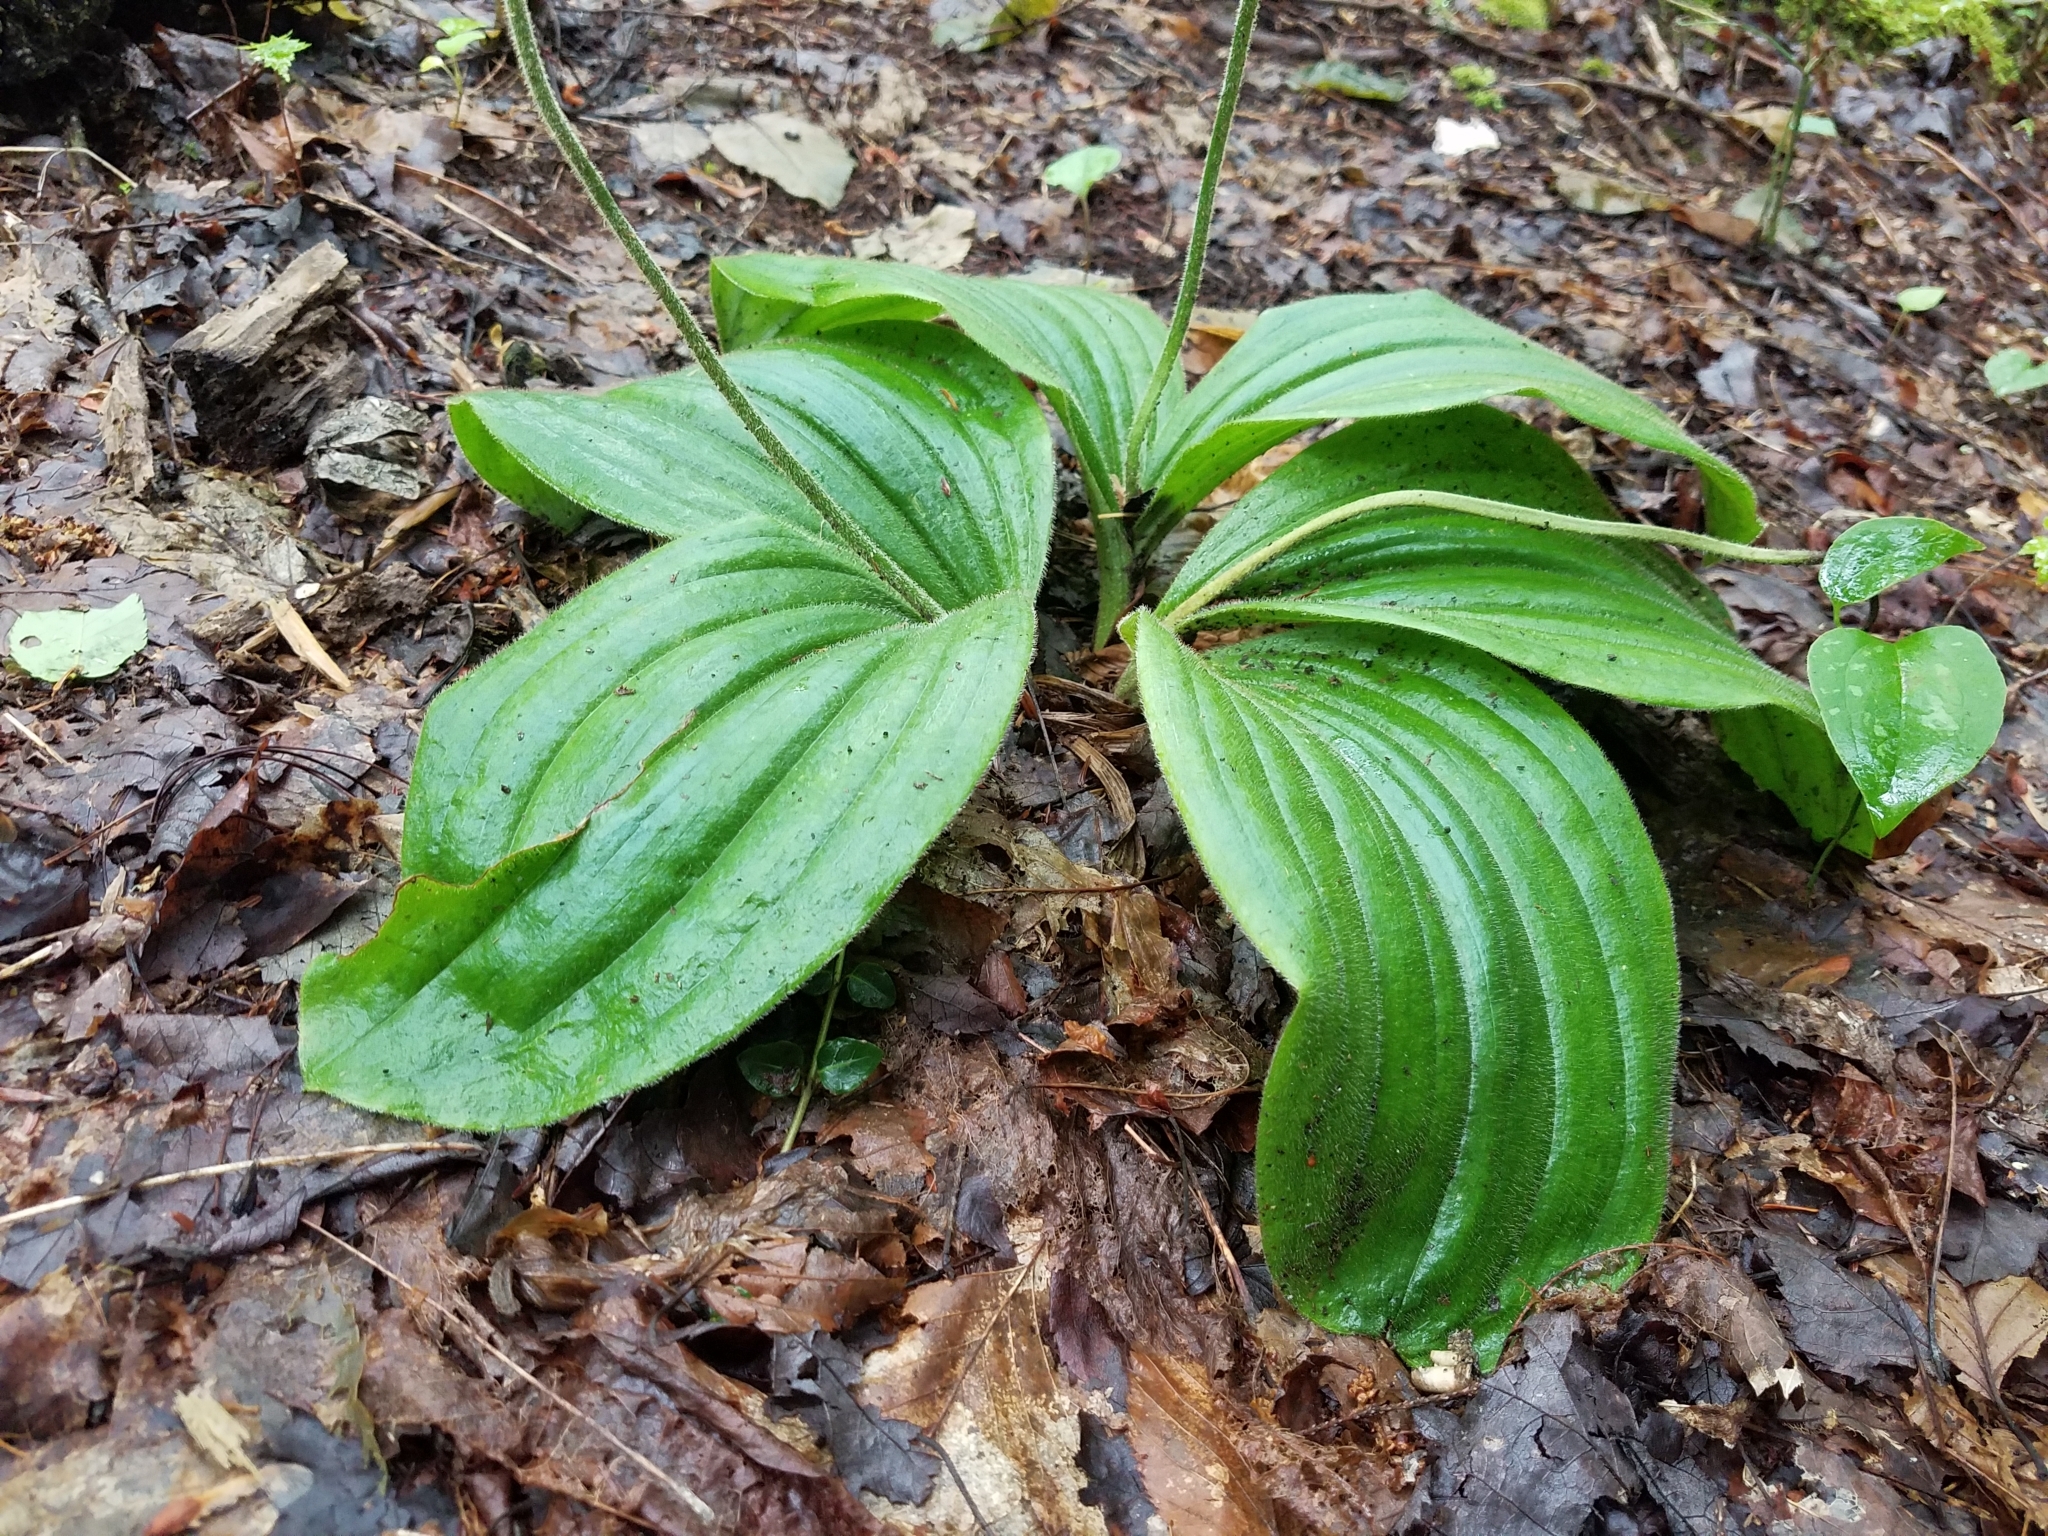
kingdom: Plantae
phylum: Tracheophyta
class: Liliopsida
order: Asparagales
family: Orchidaceae
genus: Cypripedium
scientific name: Cypripedium acaule
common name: Pink lady's-slipper
